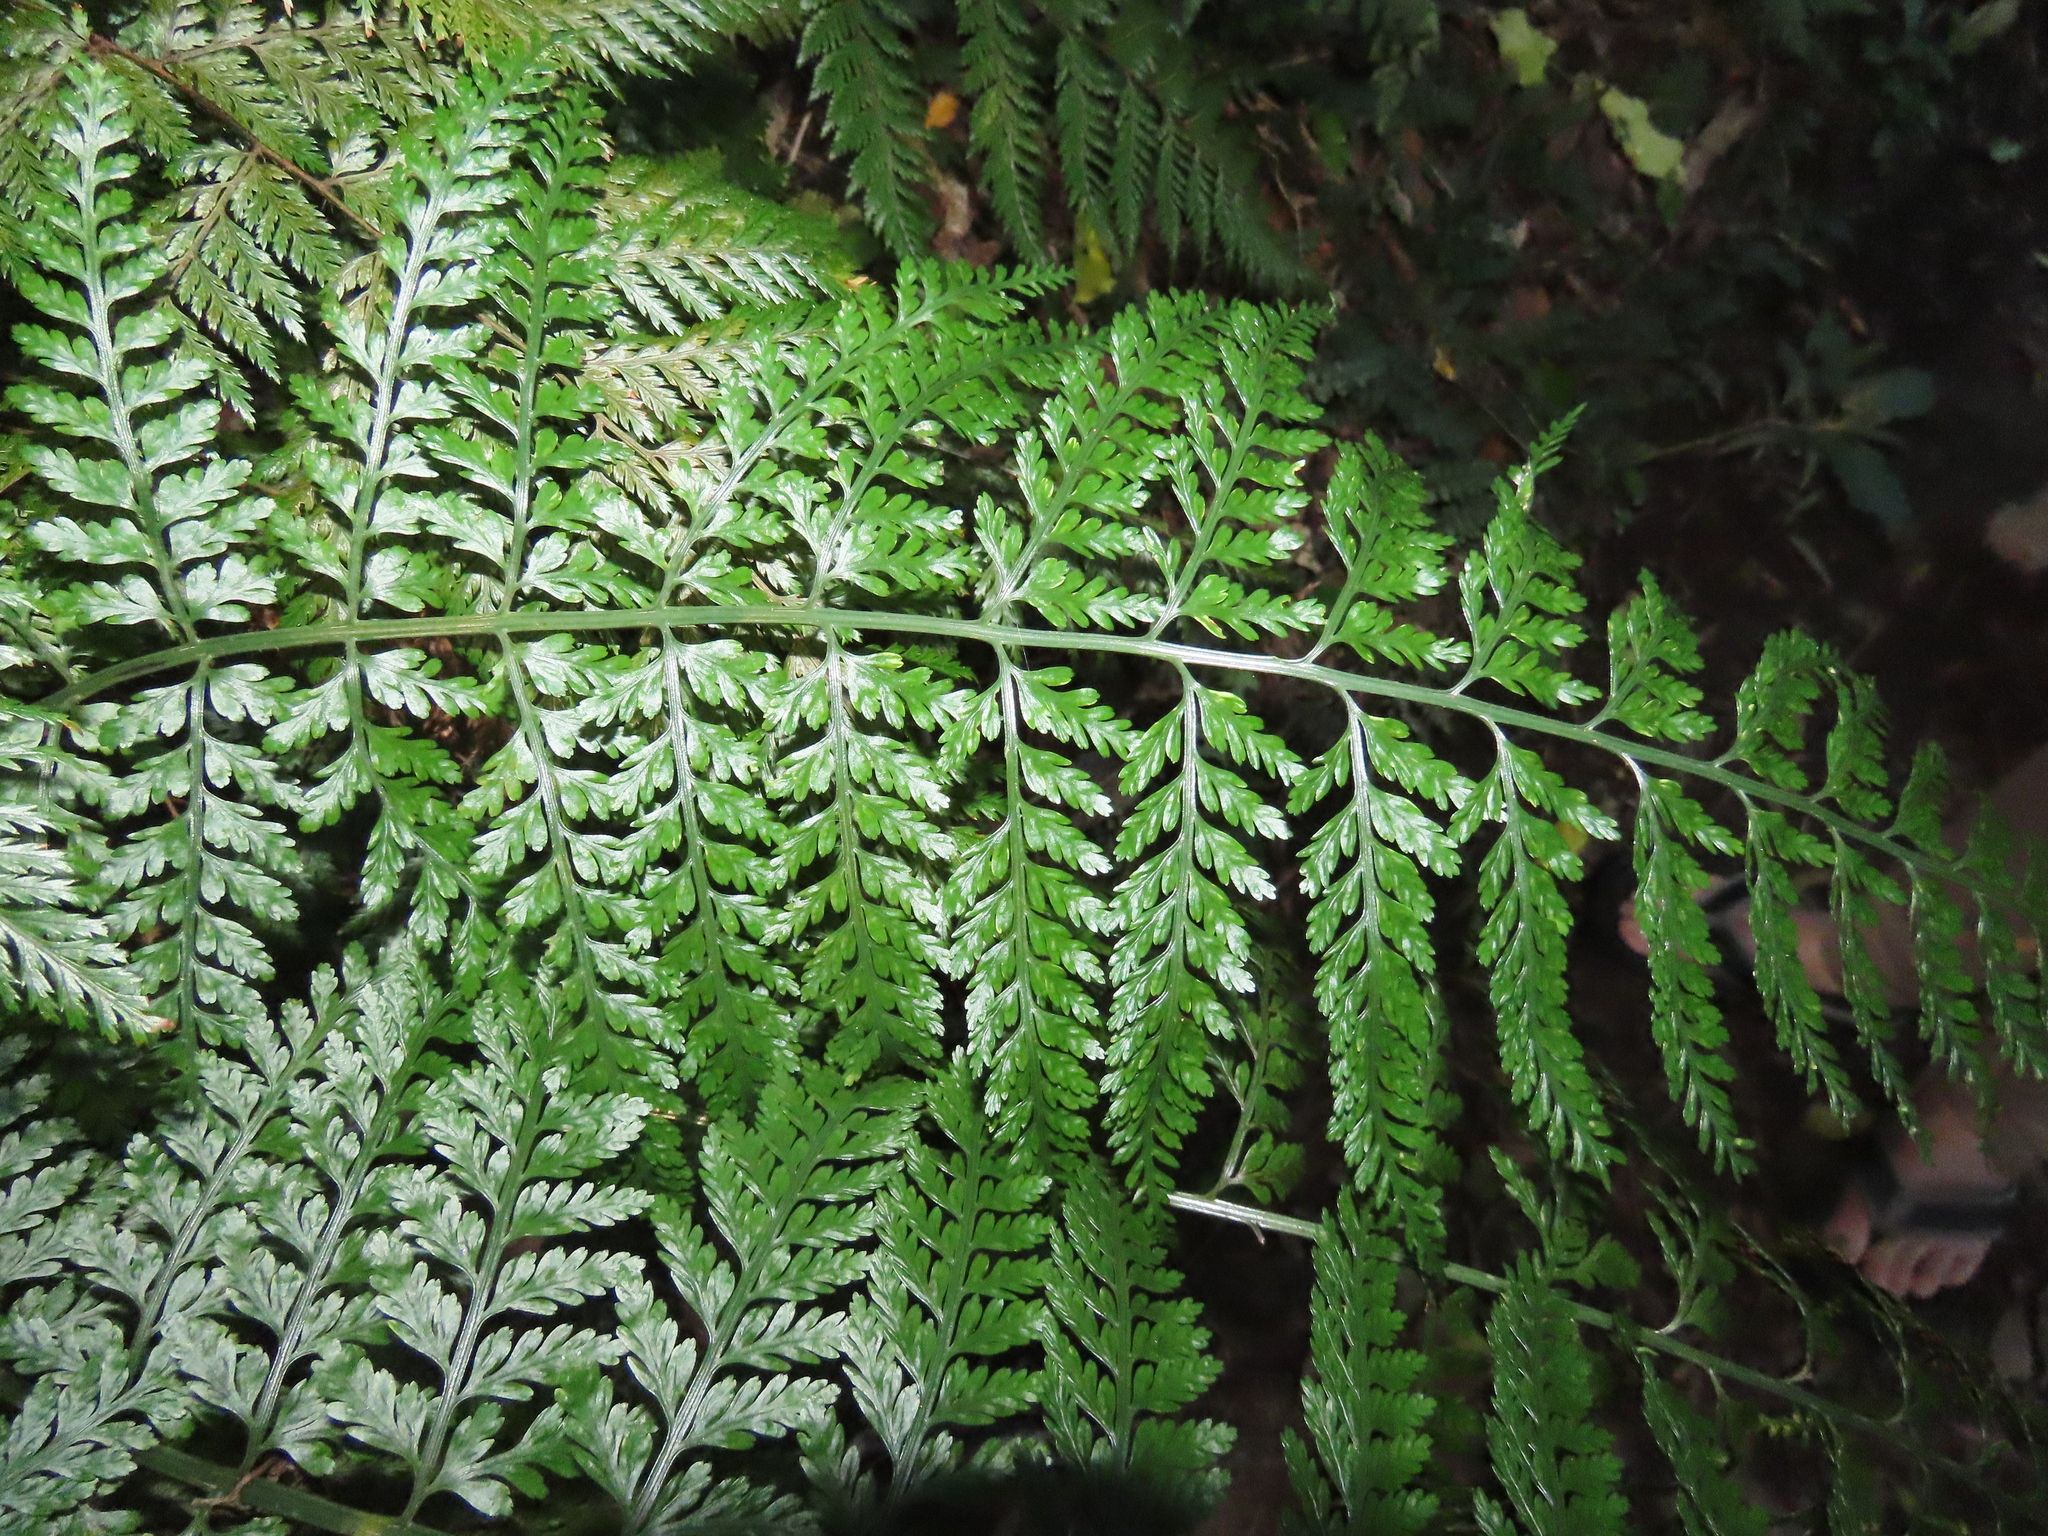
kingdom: Plantae
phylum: Tracheophyta
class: Polypodiopsida
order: Polypodiales
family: Aspleniaceae
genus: Asplenium
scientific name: Asplenium bulbiferum
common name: Mother fern
